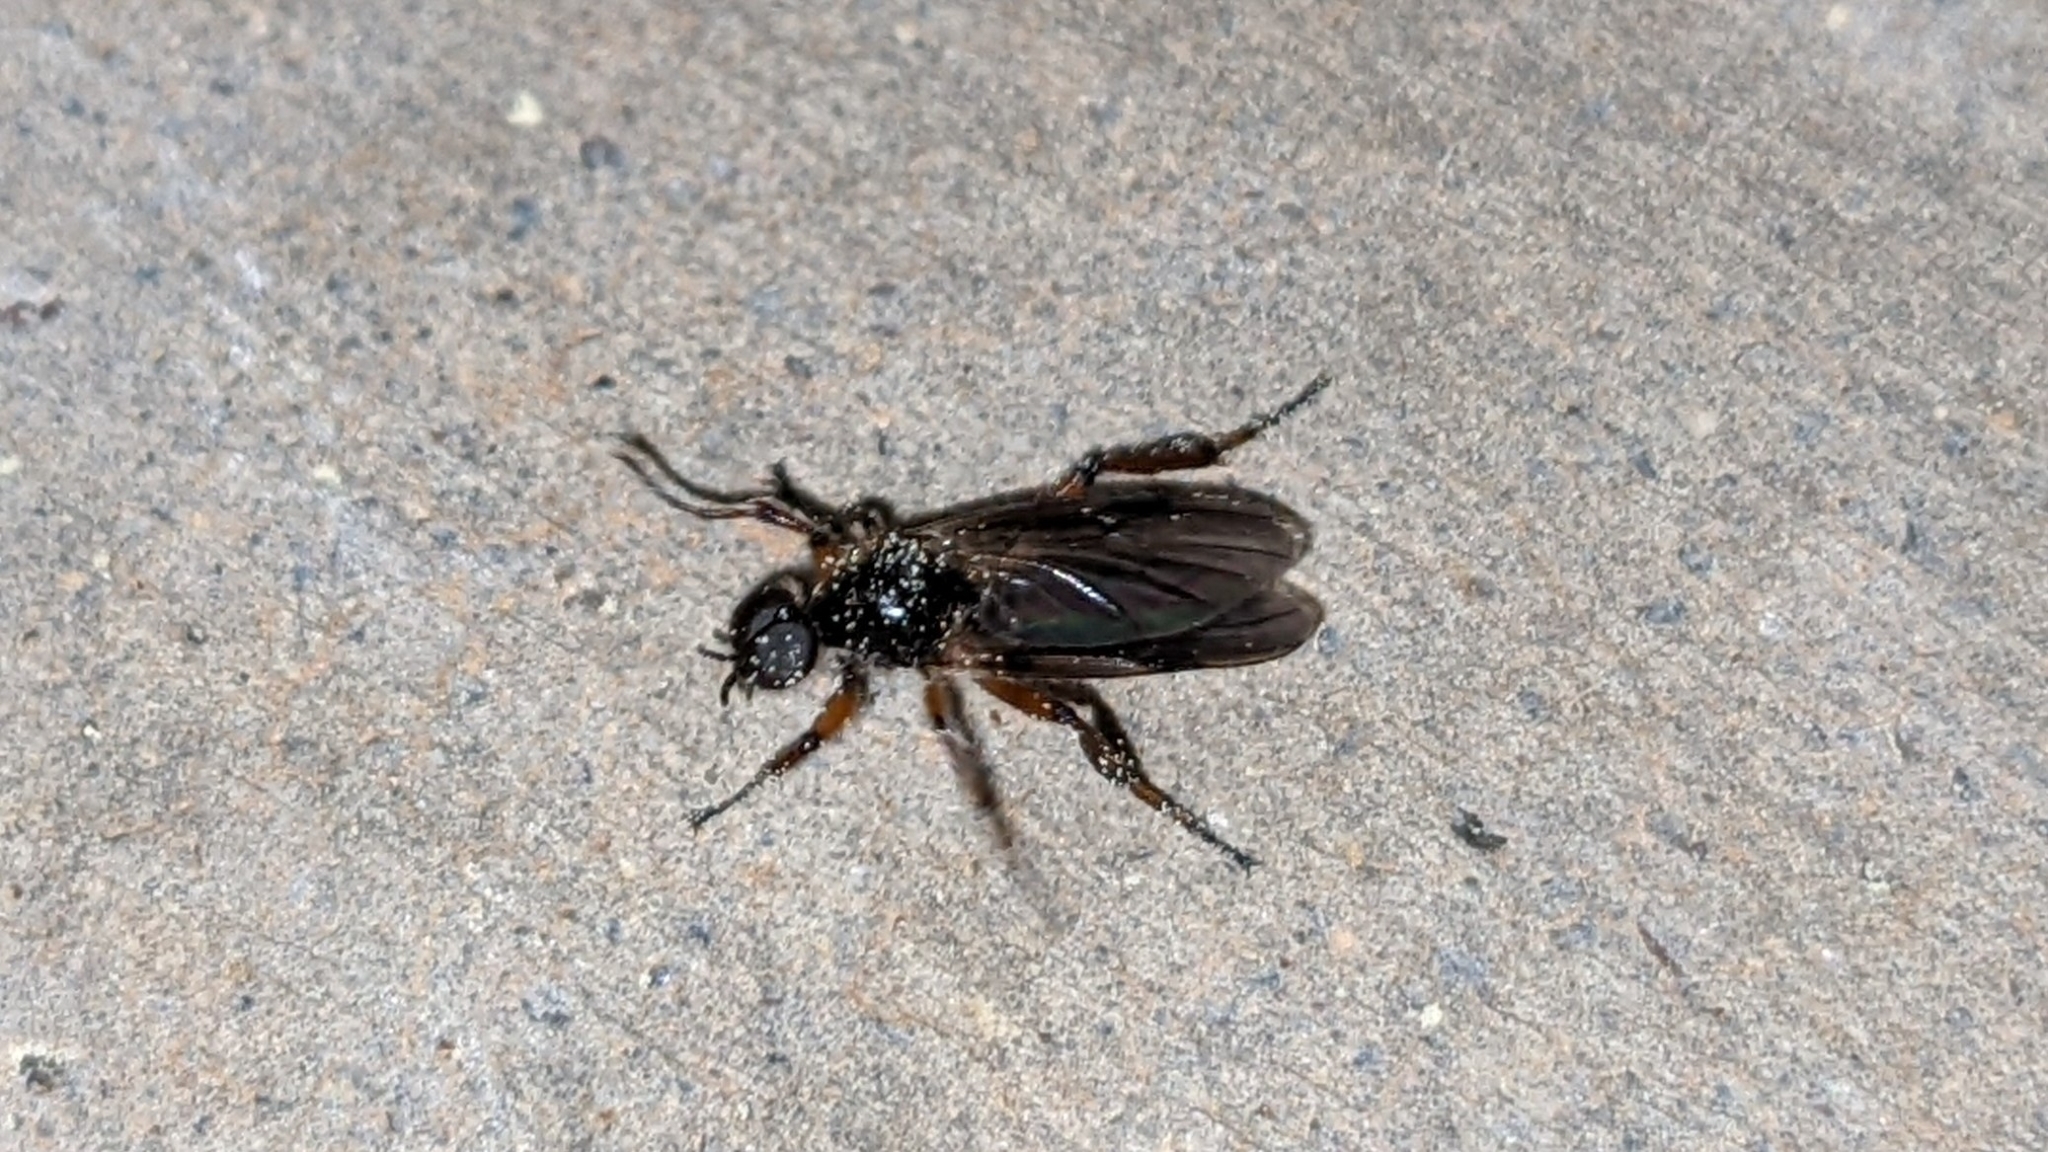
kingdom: Animalia
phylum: Arthropoda
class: Insecta
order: Diptera
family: Bibionidae
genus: Bibio
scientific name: Bibio
